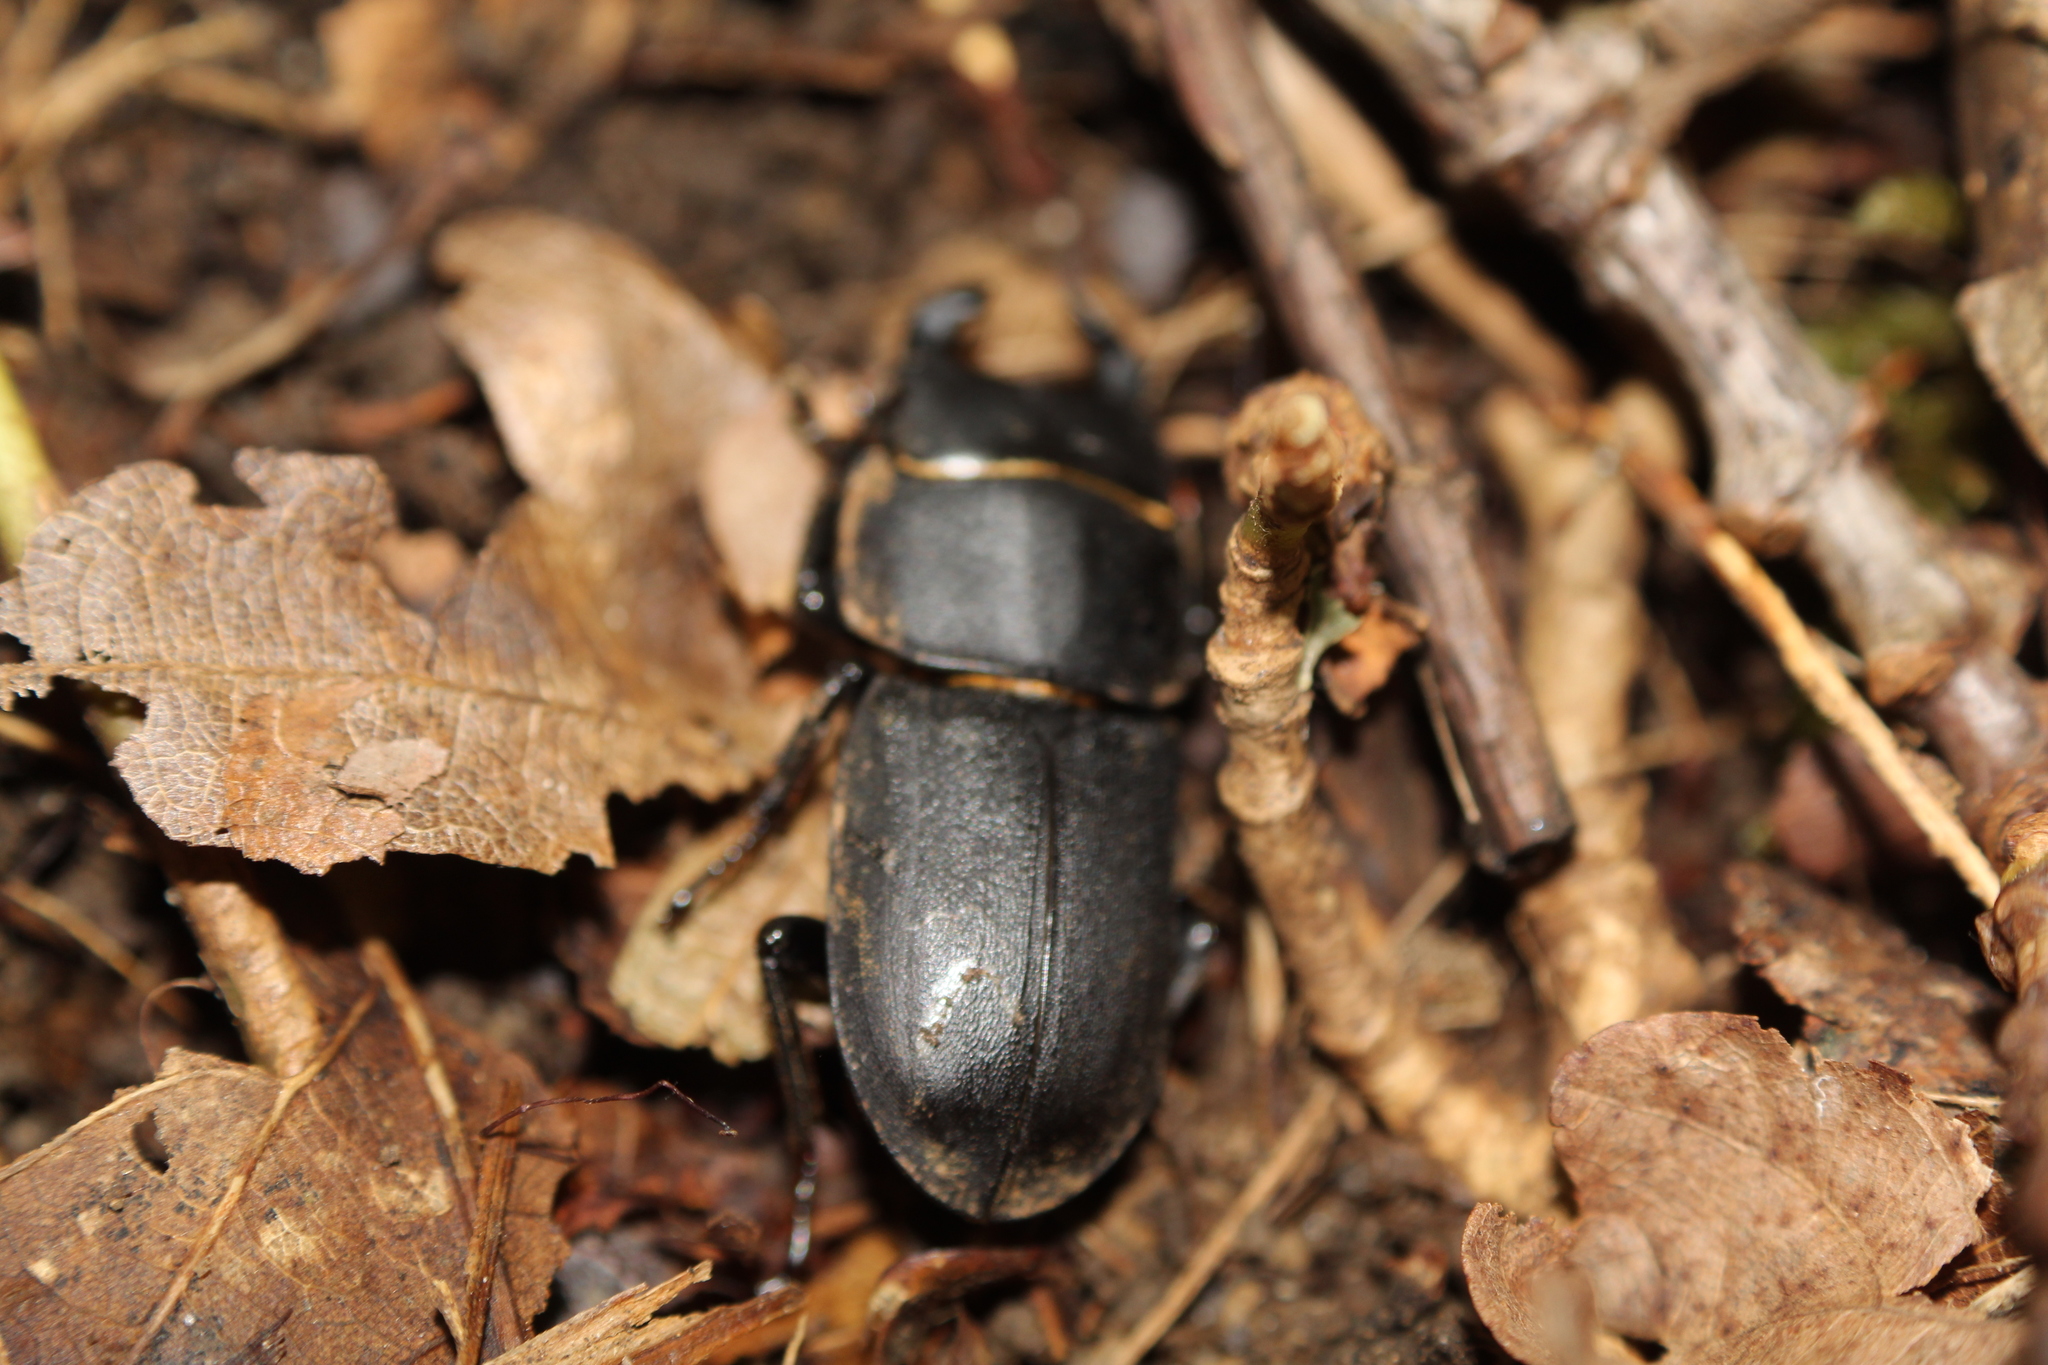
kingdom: Animalia
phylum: Arthropoda
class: Insecta
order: Coleoptera
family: Lucanidae
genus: Dorcus
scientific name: Dorcus parallelipipedus
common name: Lesser stag beetle
